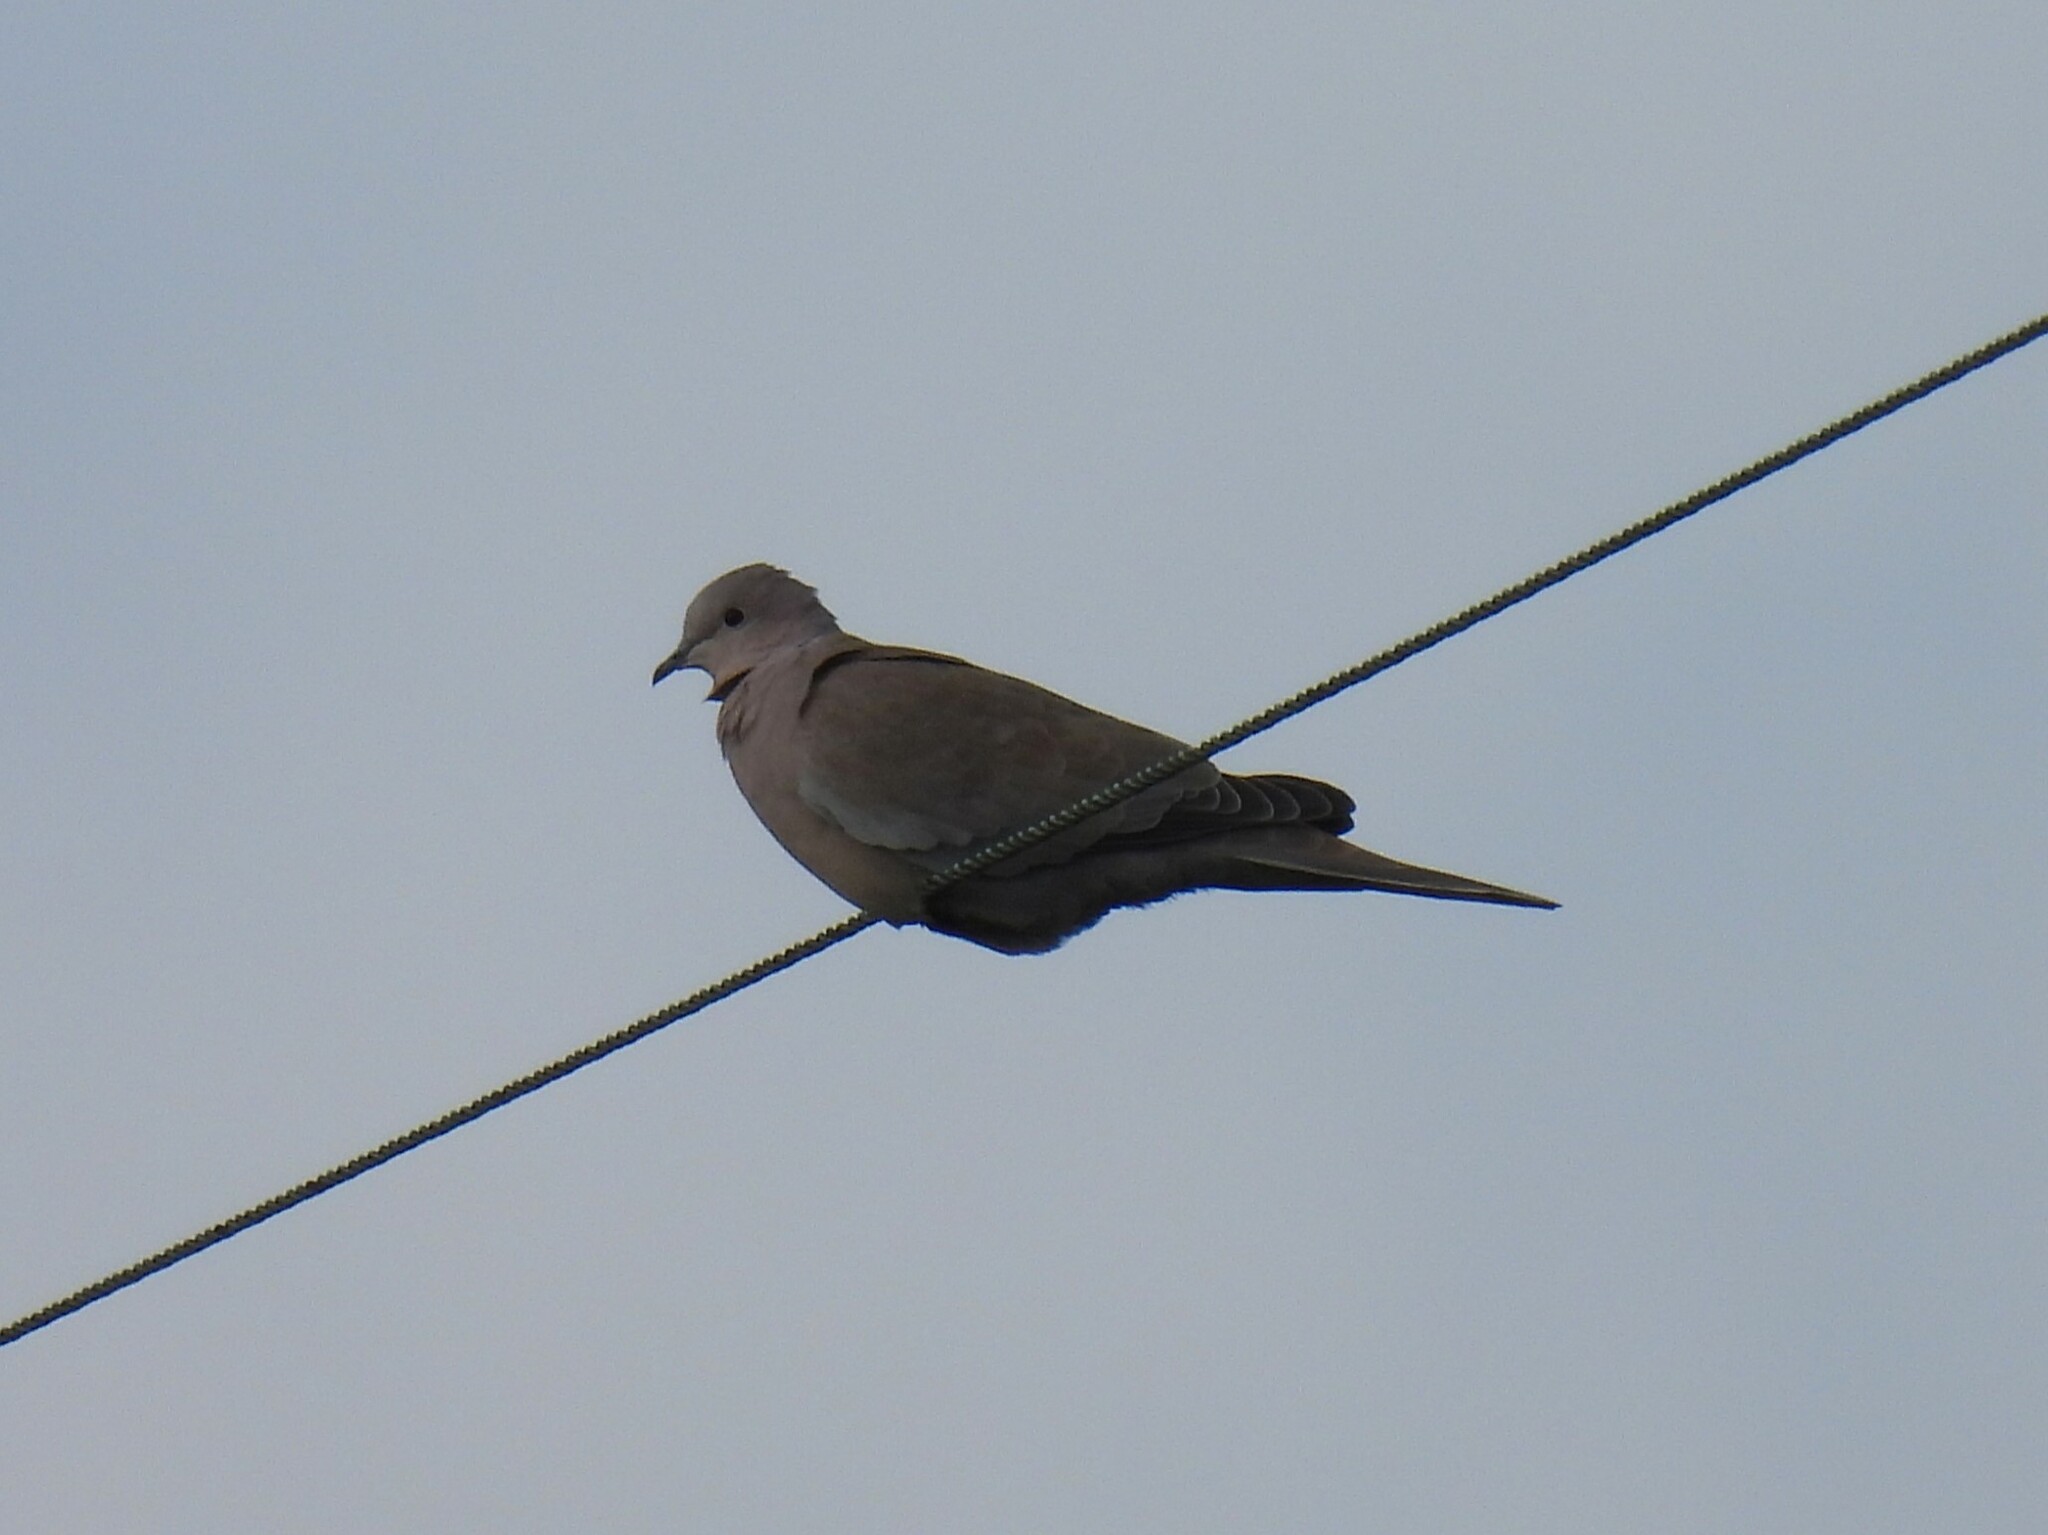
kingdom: Animalia
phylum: Chordata
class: Aves
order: Columbiformes
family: Columbidae
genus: Streptopelia
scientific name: Streptopelia decaocto
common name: Eurasian collared dove
